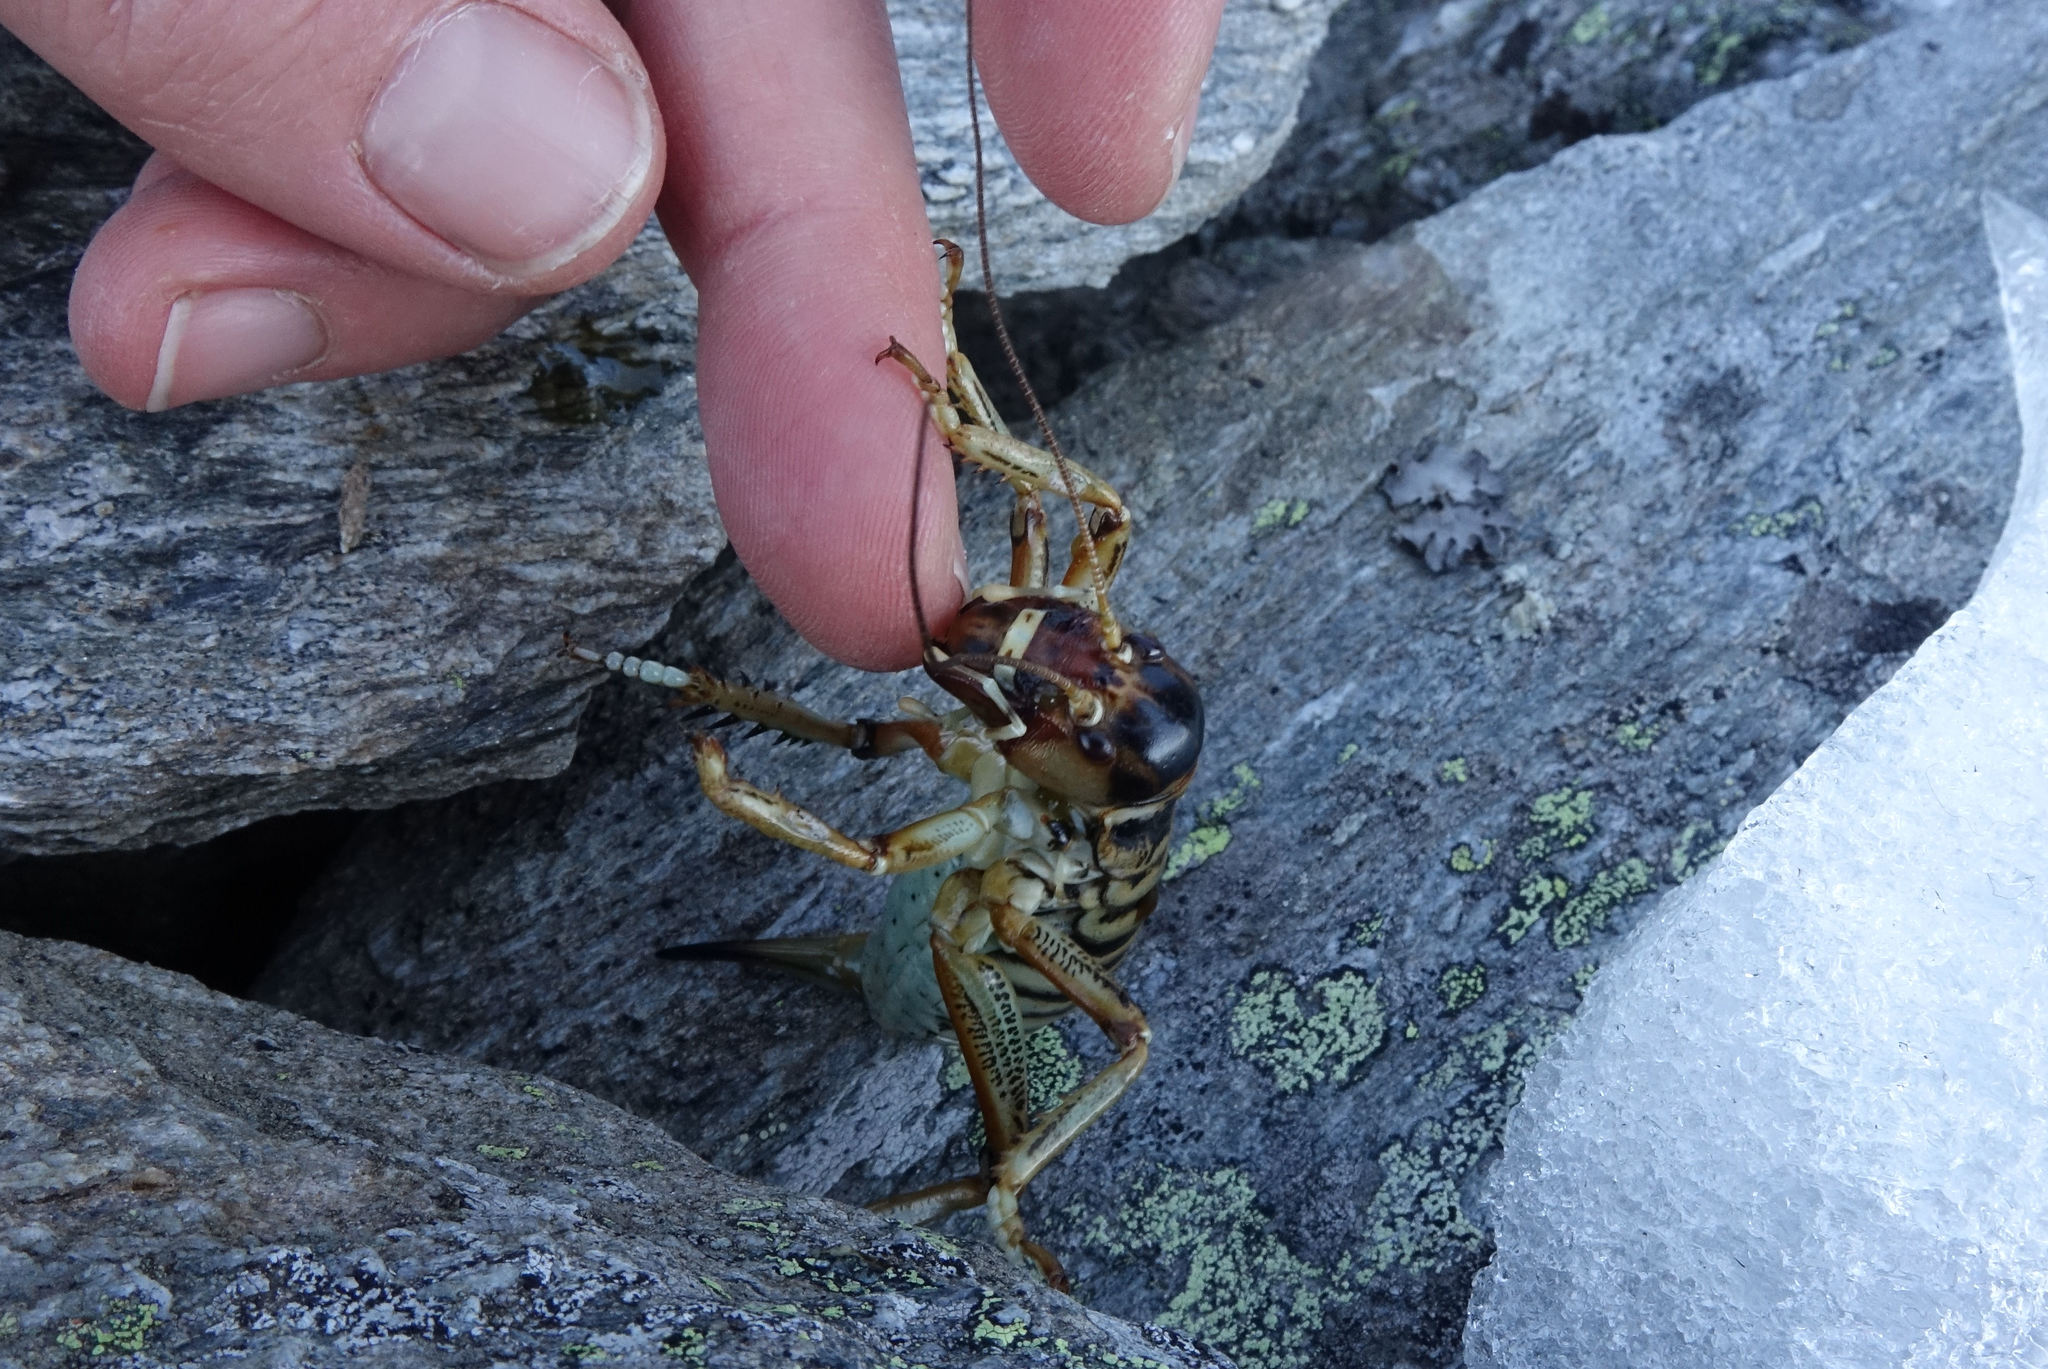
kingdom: Animalia
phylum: Arthropoda
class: Insecta
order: Orthoptera
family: Anostostomatidae
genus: Hemideina
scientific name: Hemideina maori
